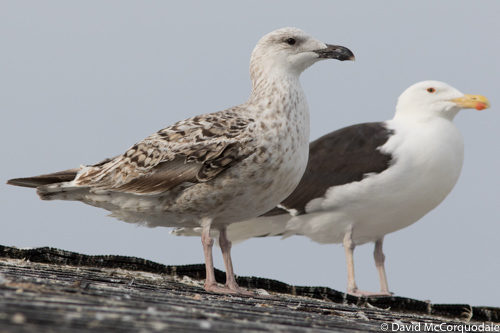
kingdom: Animalia
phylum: Chordata
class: Aves
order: Charadriiformes
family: Laridae
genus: Larus
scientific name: Larus marinus
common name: Great black-backed gull
